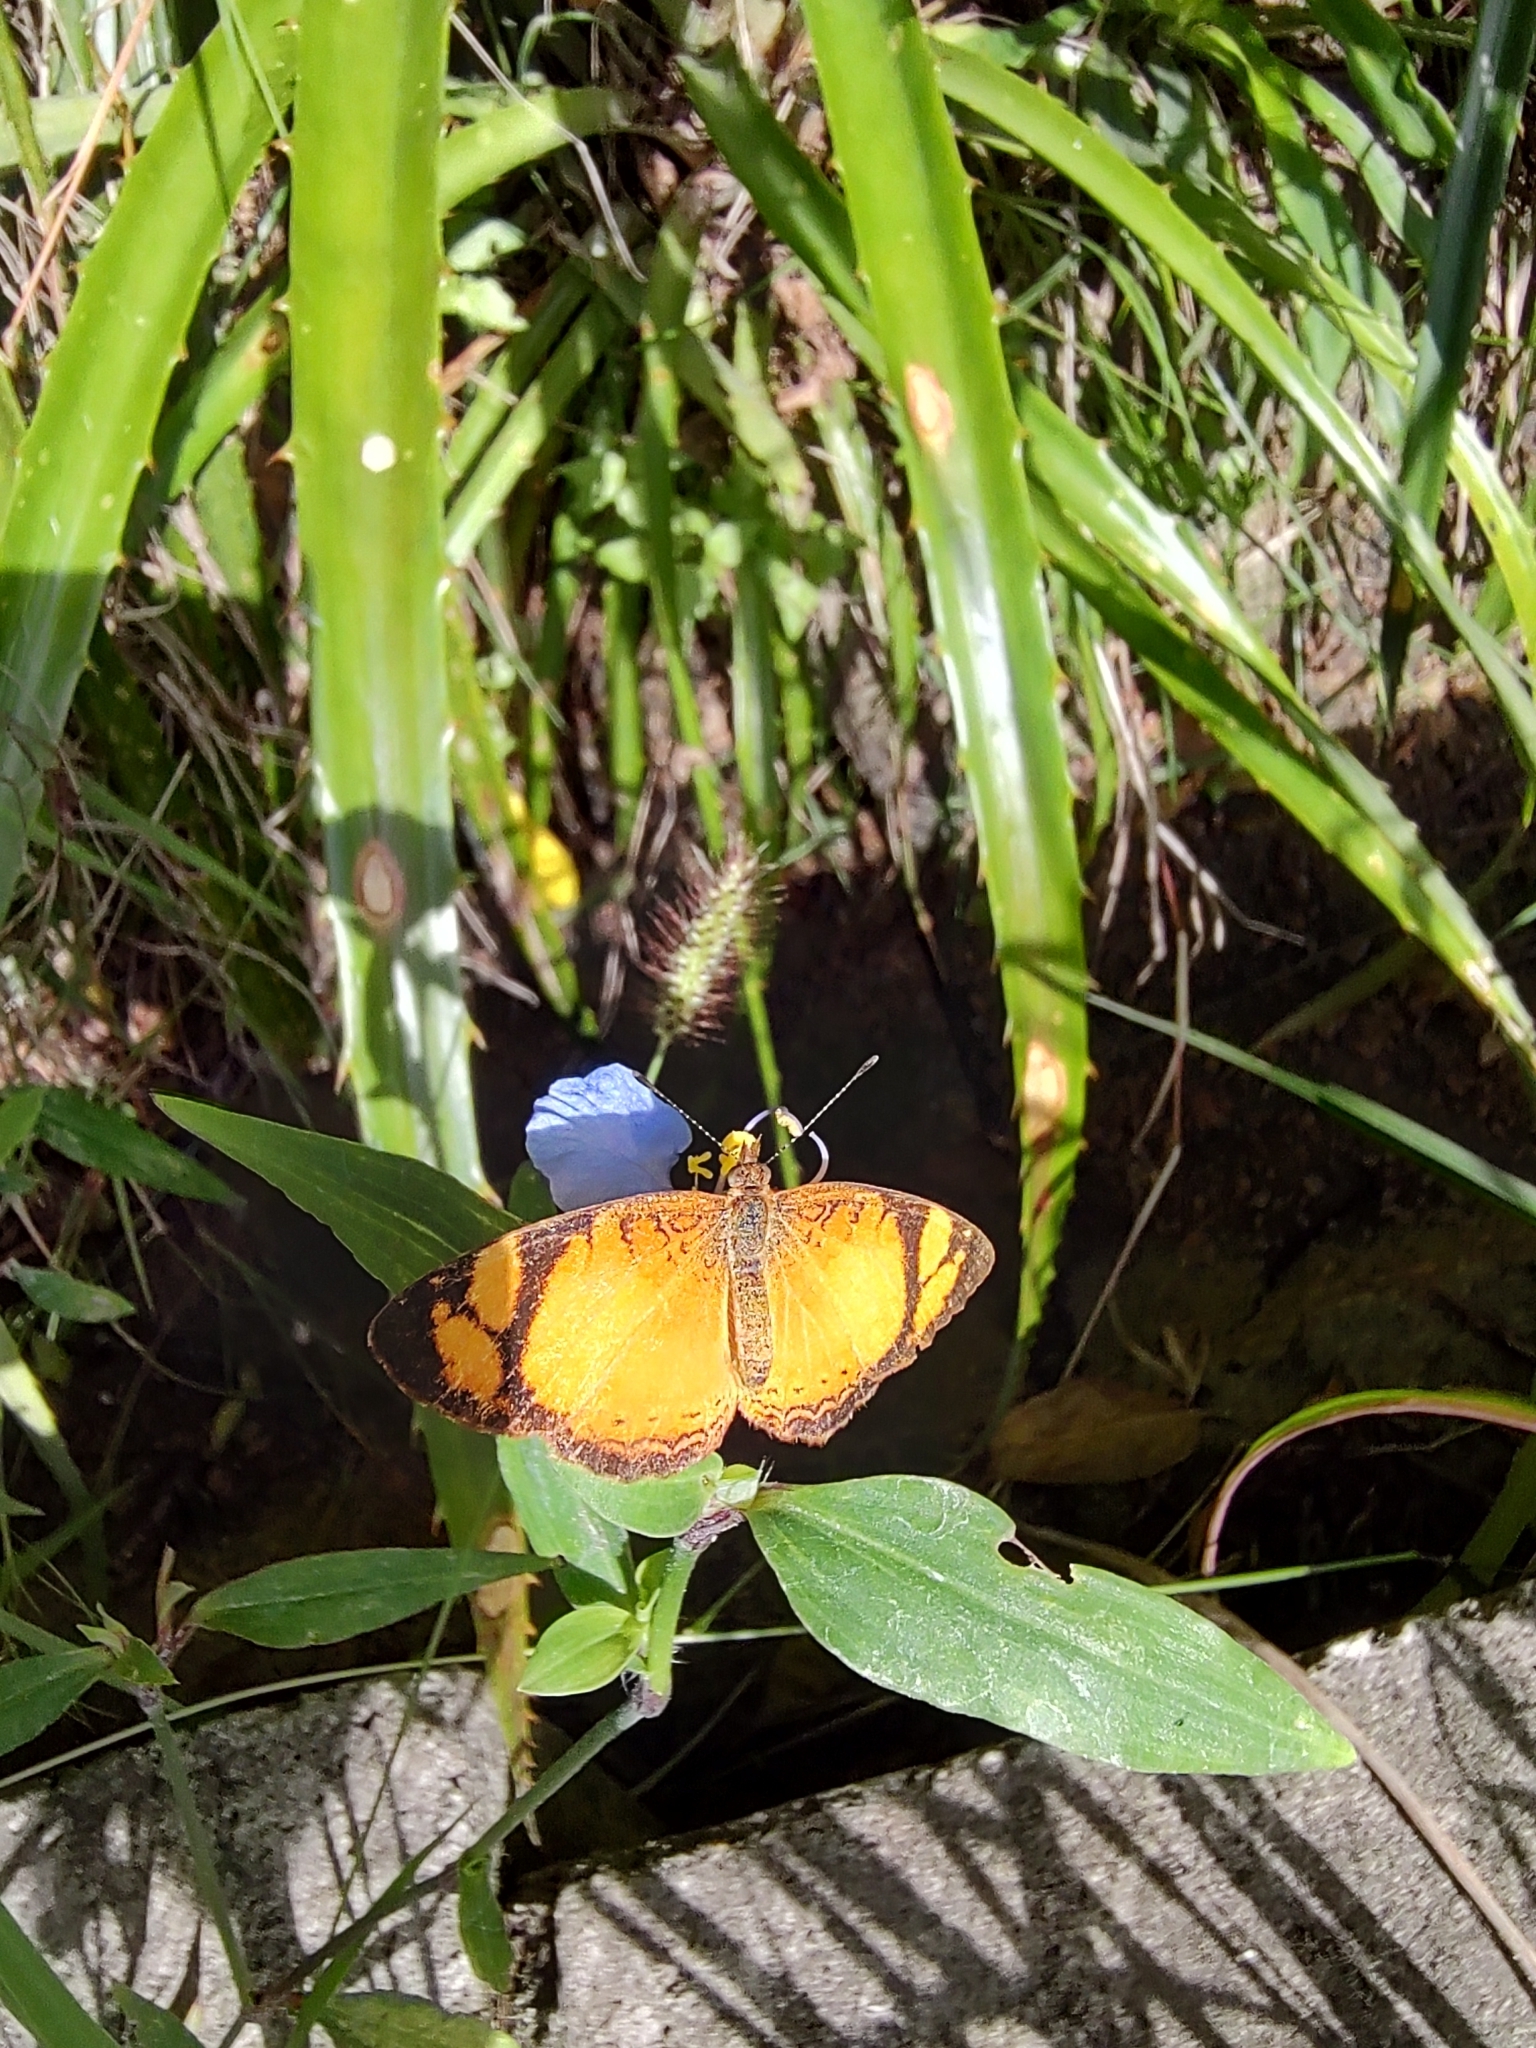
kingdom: Animalia
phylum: Arthropoda
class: Insecta
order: Lepidoptera
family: Nymphalidae
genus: Tegosa
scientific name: Tegosa claudina
